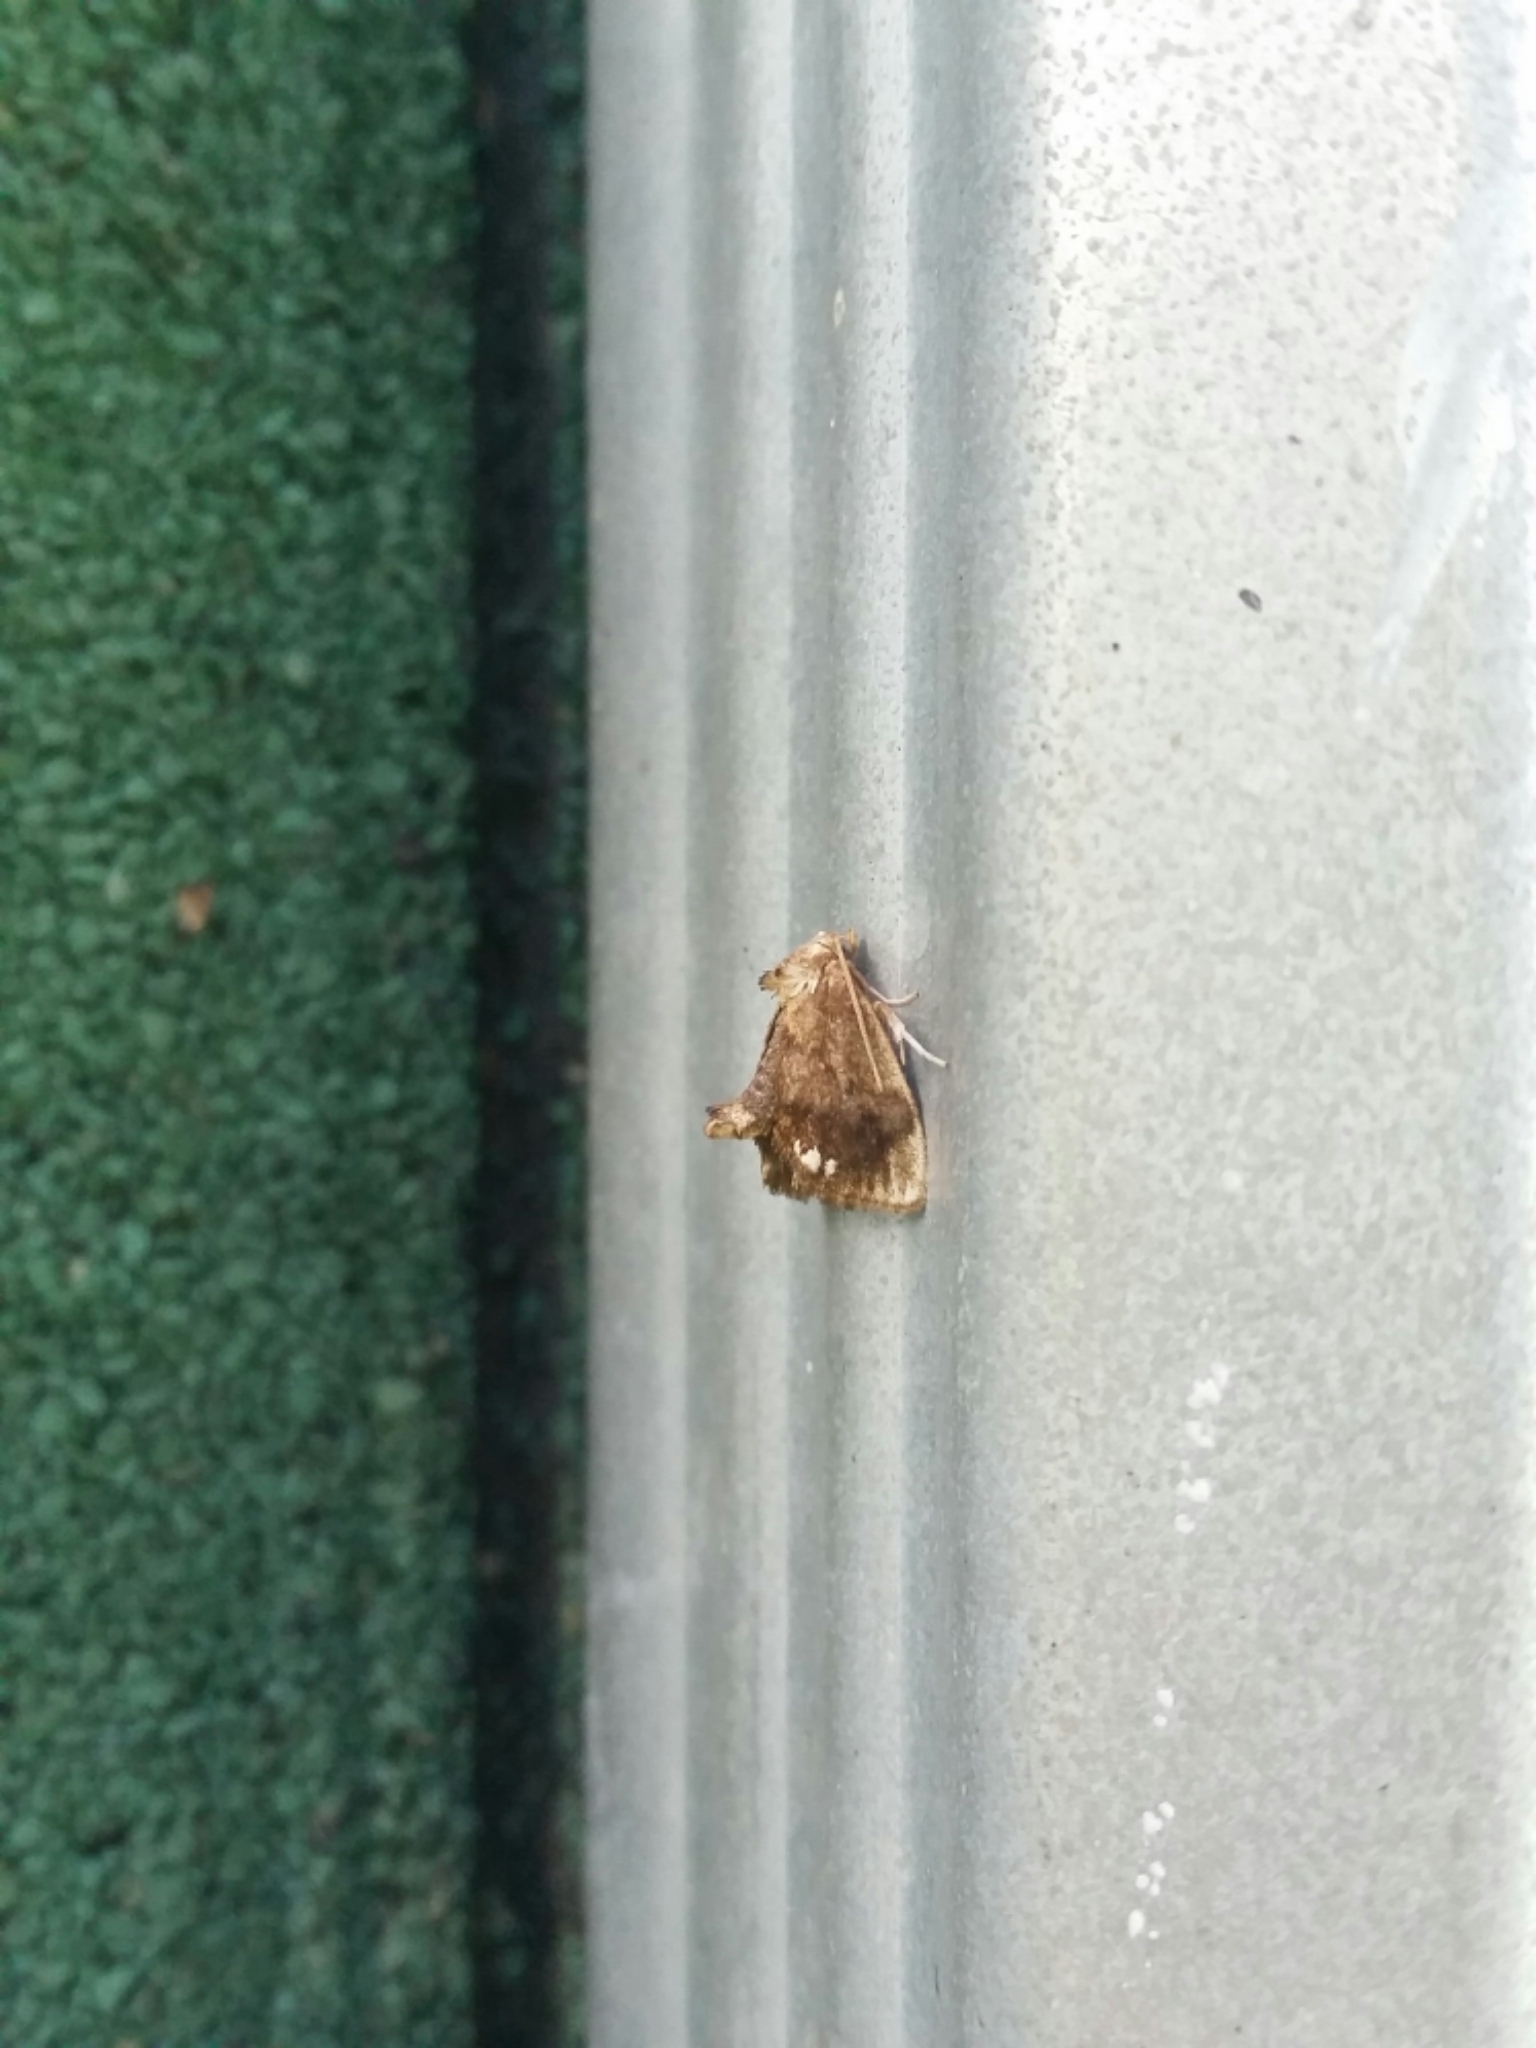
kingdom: Animalia
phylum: Arthropoda
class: Insecta
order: Lepidoptera
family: Limacodidae
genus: Packardia
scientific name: Packardia geminata
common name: Jeweled tailed slug moth
